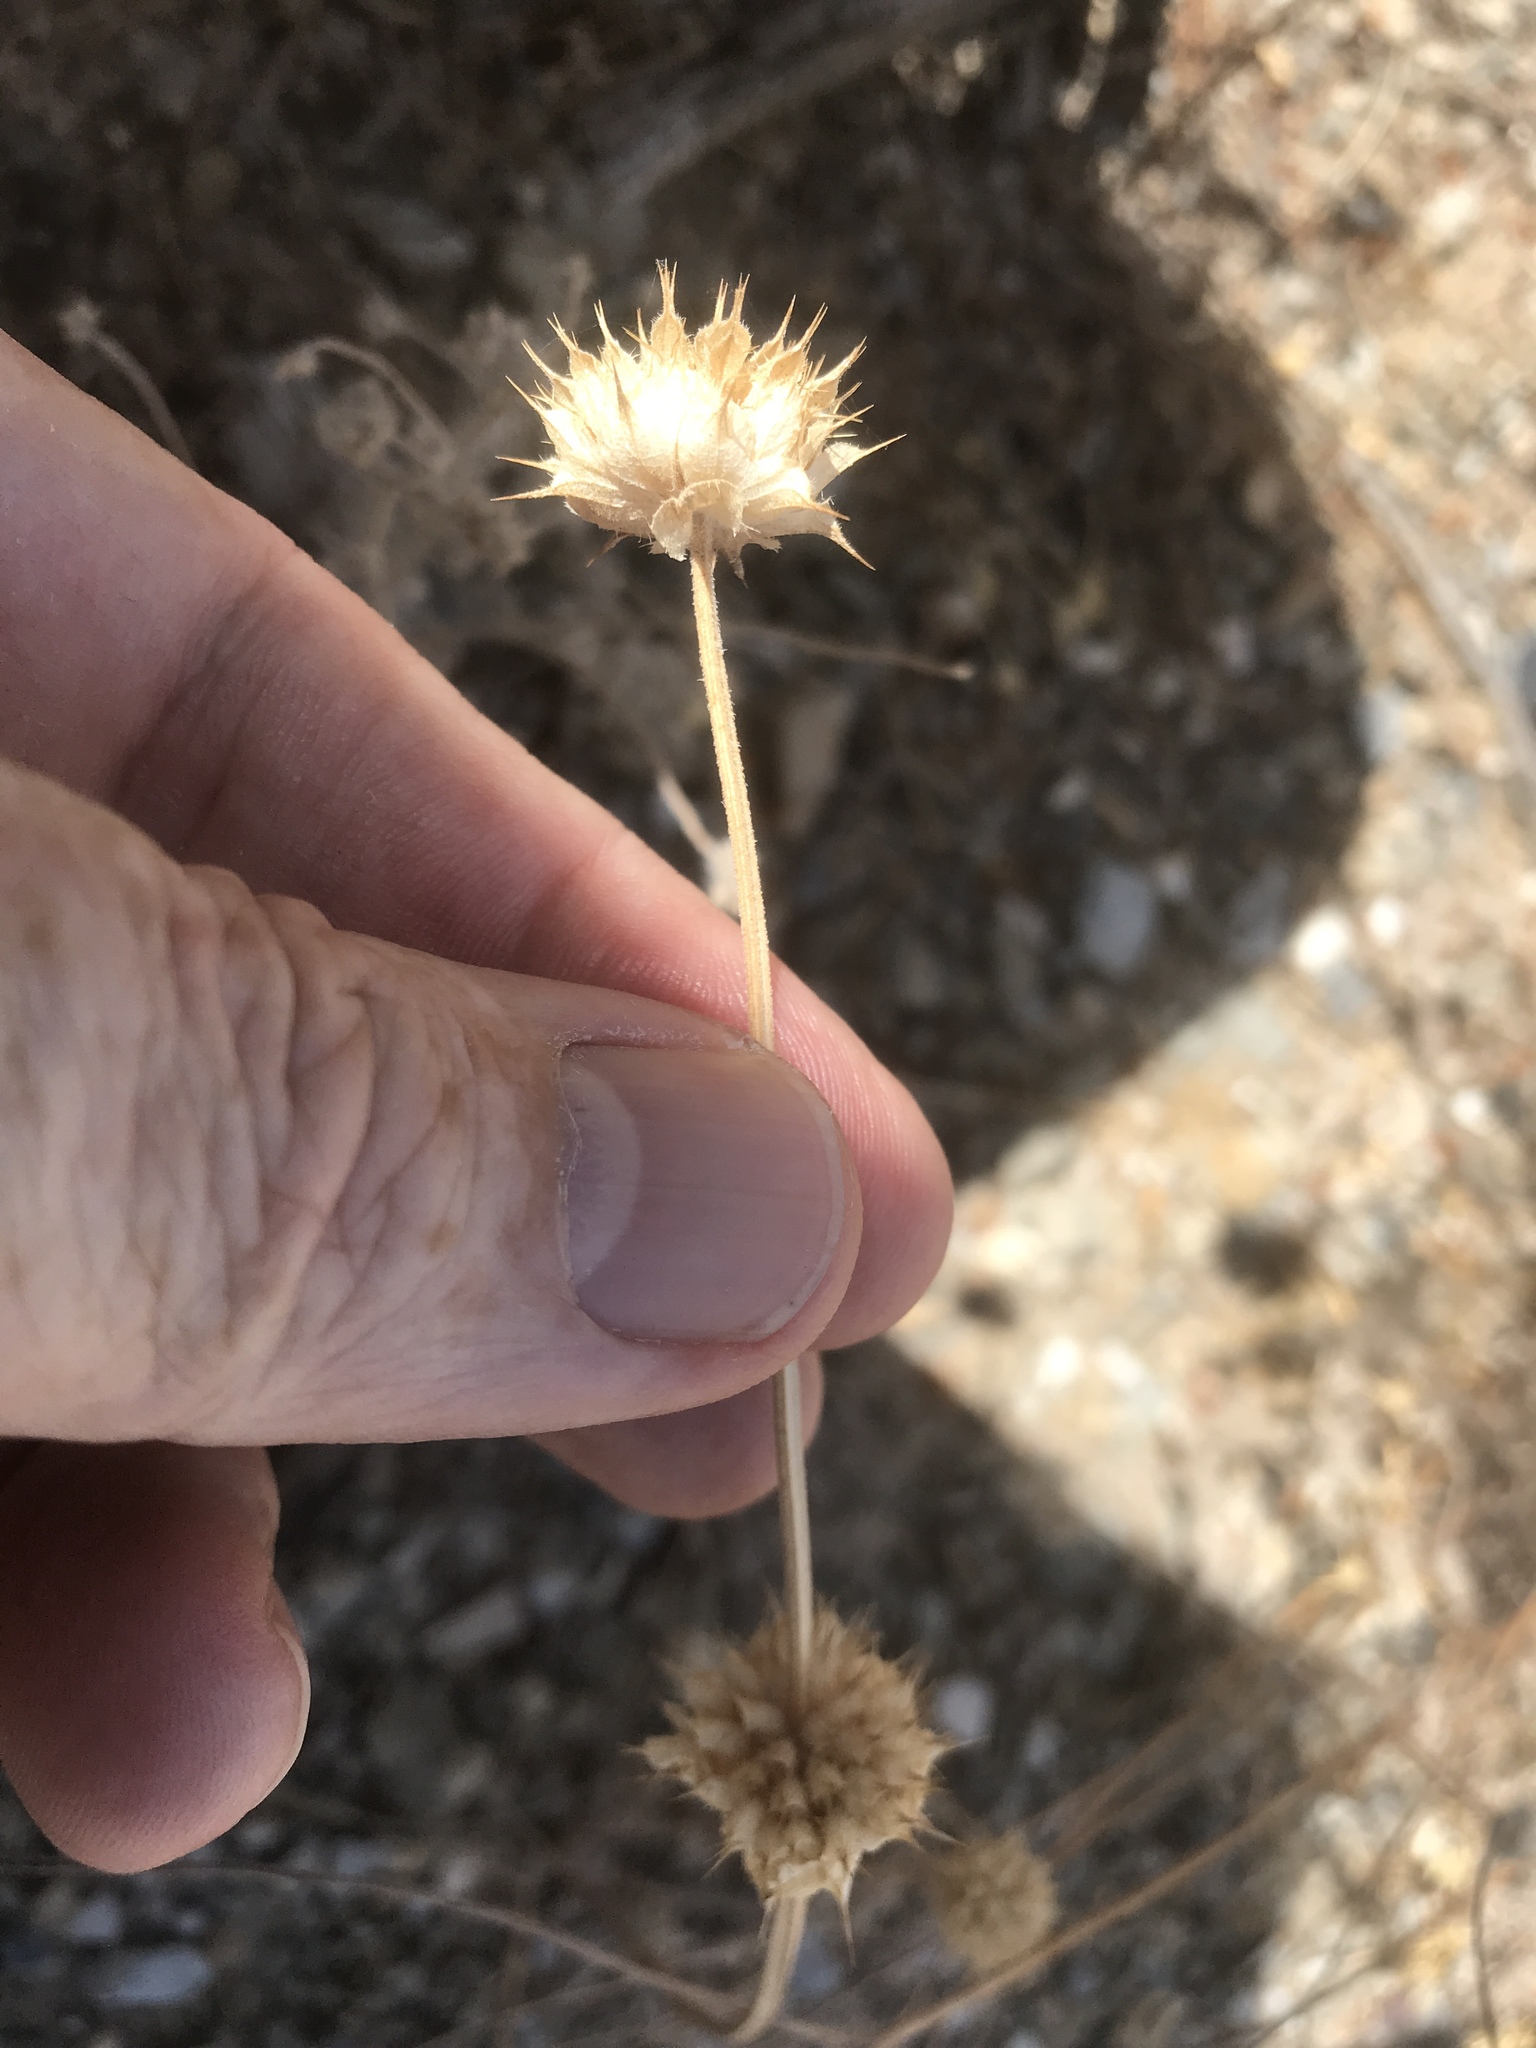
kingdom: Plantae
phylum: Tracheophyta
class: Magnoliopsida
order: Lamiales
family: Lamiaceae
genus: Salvia
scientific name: Salvia columbariae
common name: Chia
